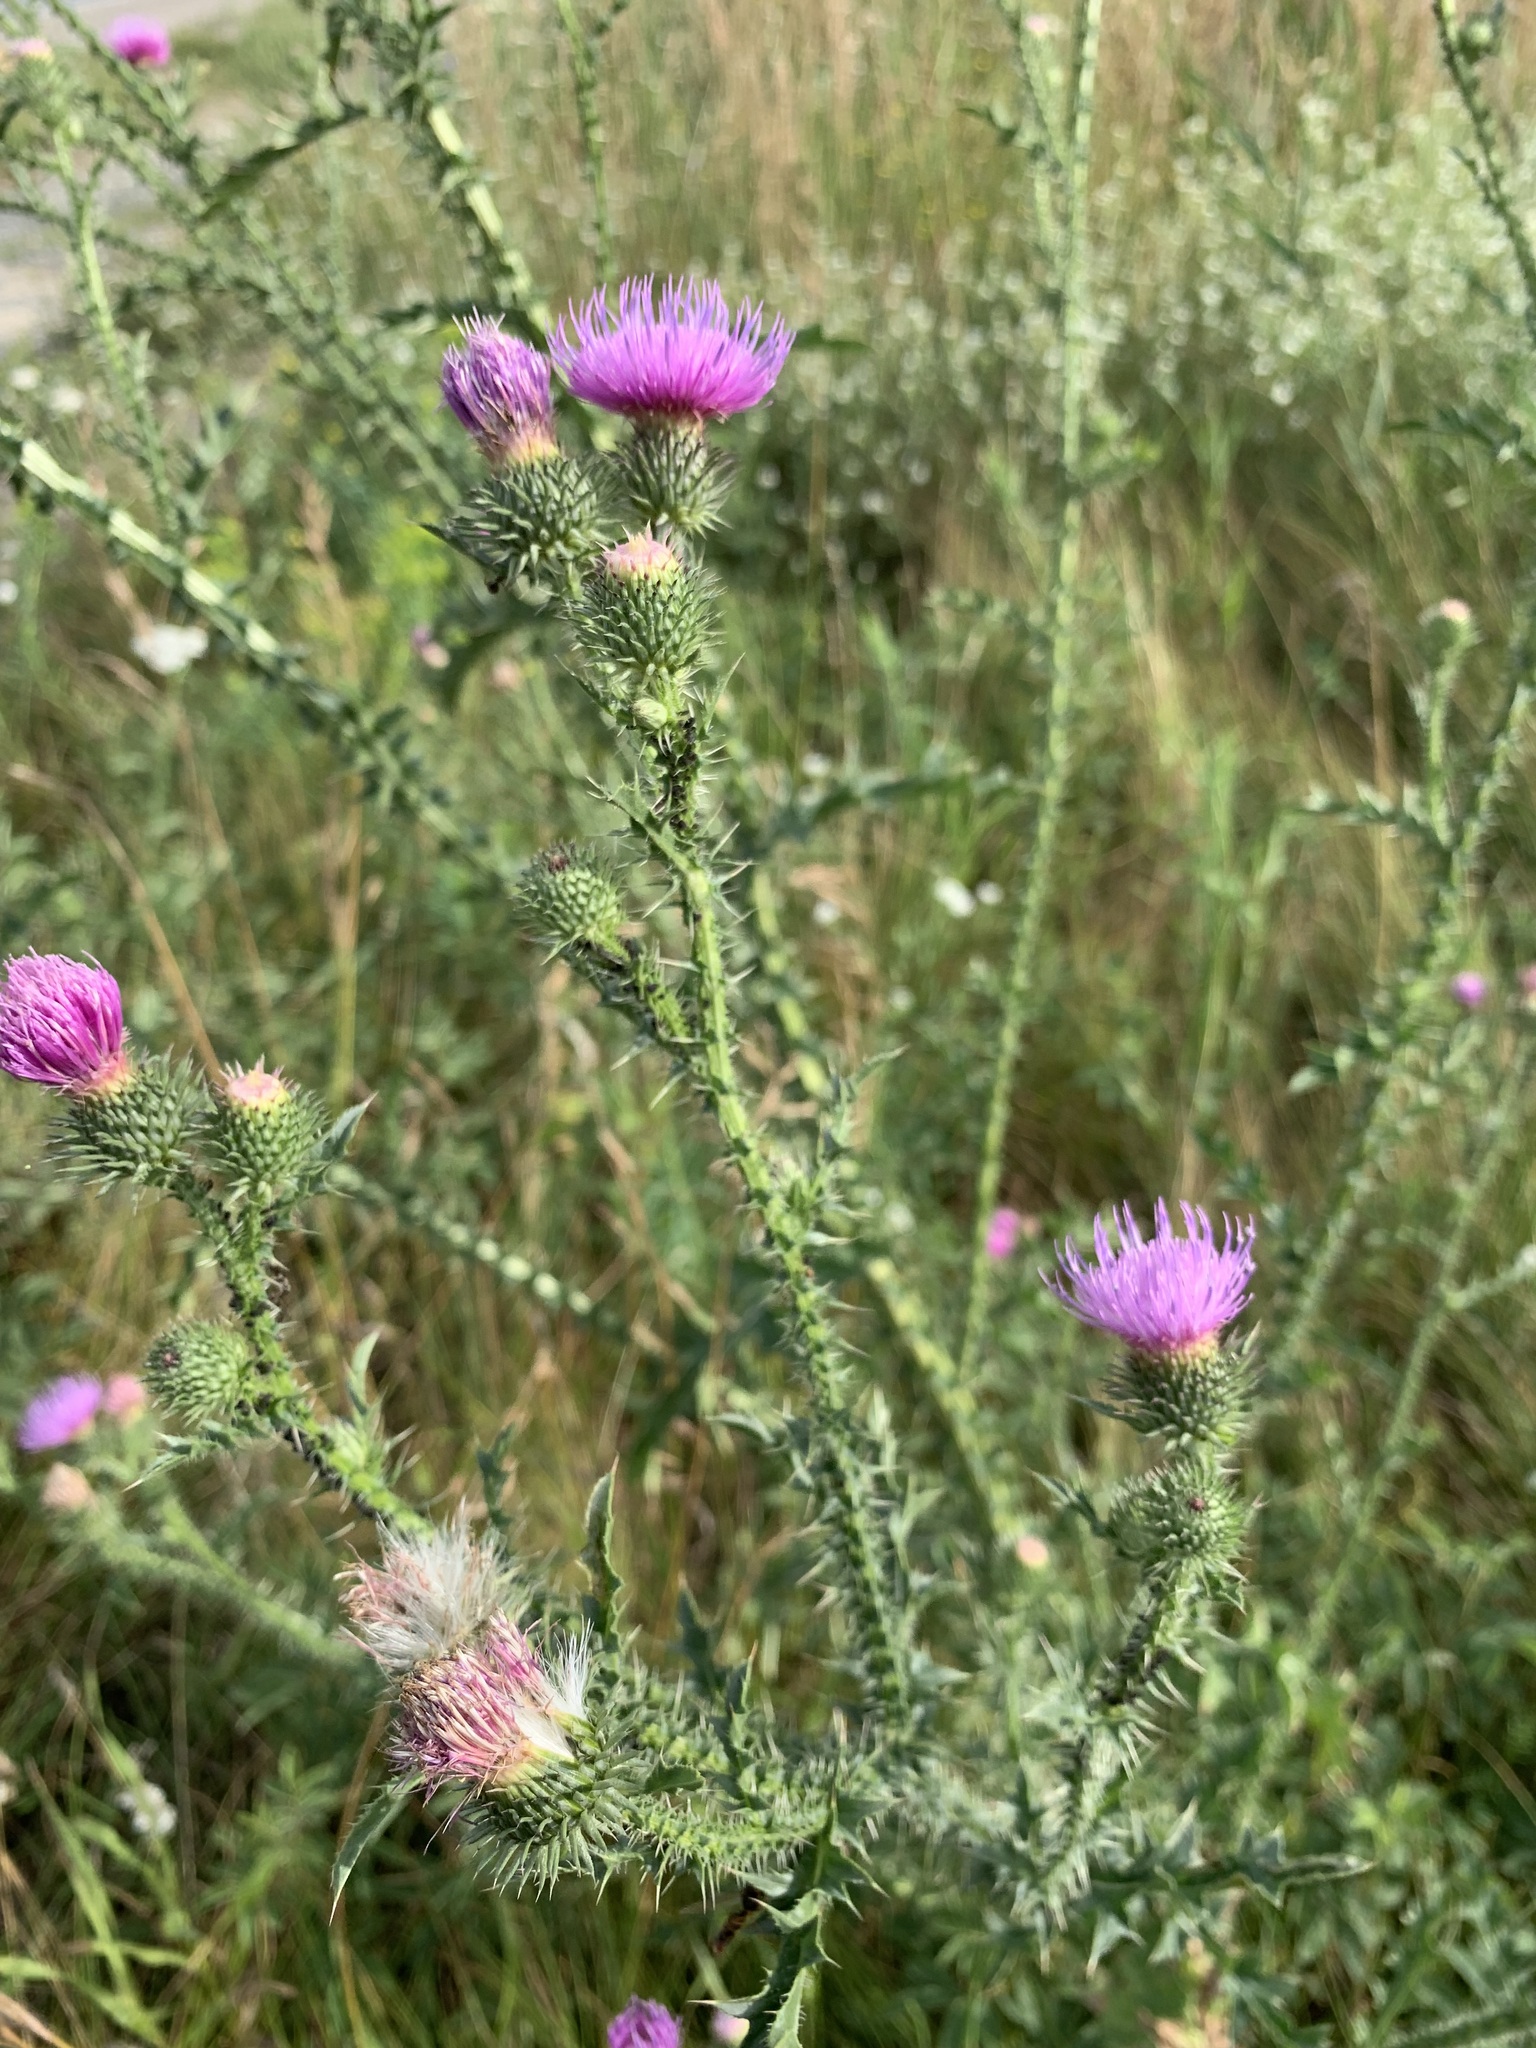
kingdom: Plantae
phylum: Tracheophyta
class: Magnoliopsida
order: Asterales
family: Asteraceae
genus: Carduus
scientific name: Carduus acanthoides
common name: Plumeless thistle
